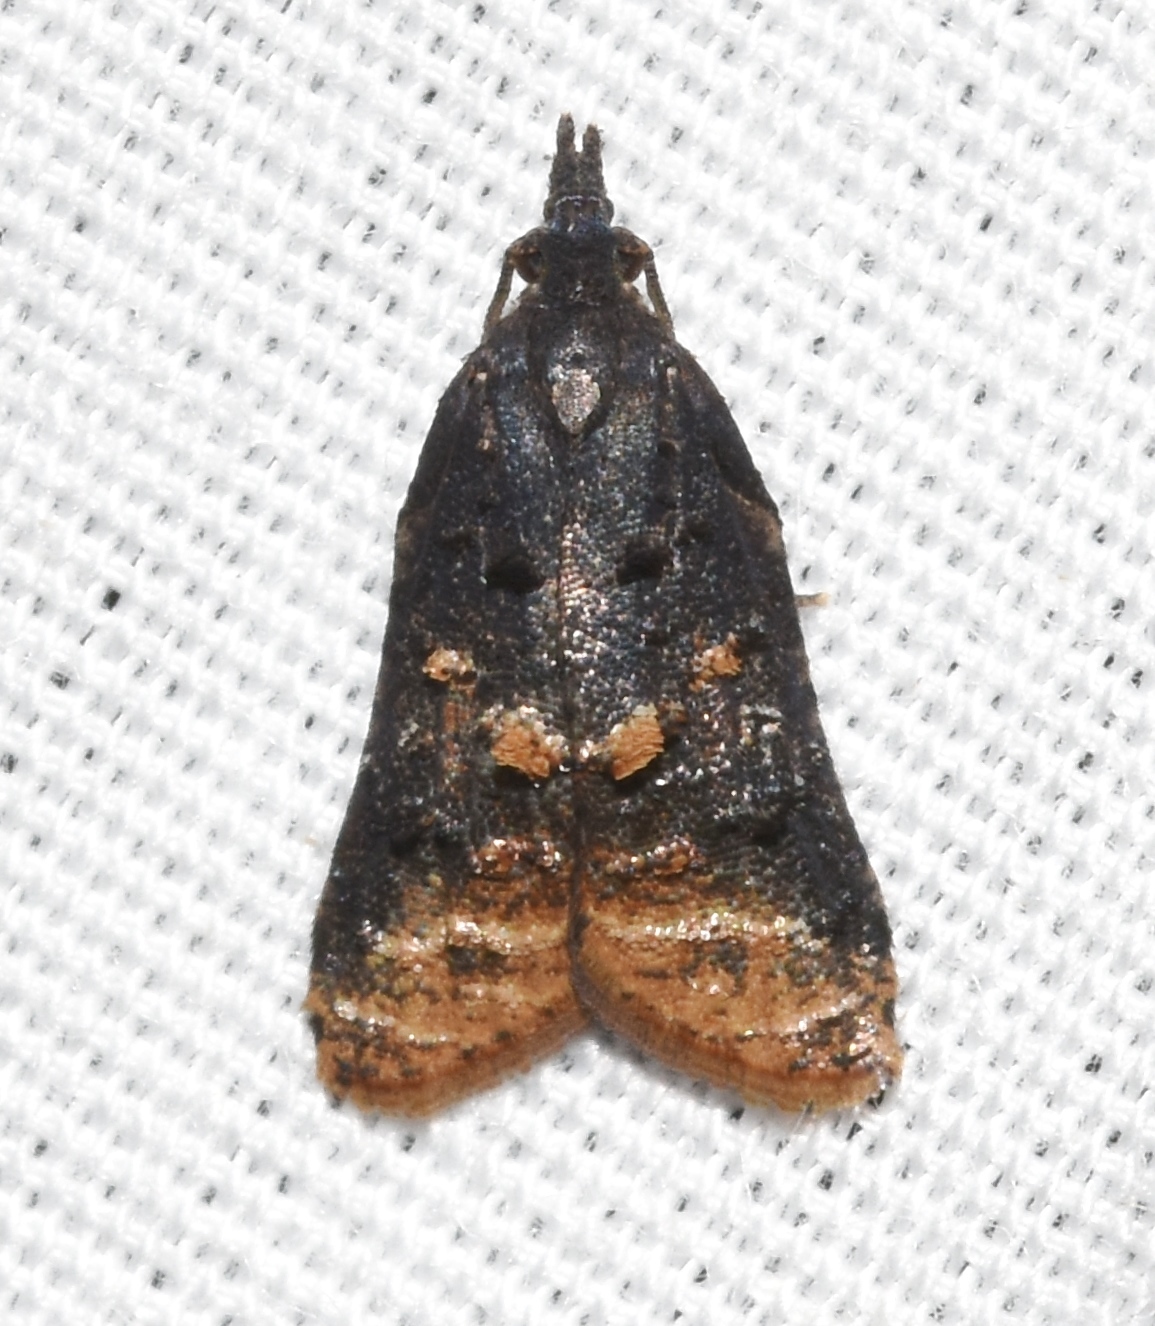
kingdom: Animalia
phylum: Arthropoda
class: Insecta
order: Lepidoptera
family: Tortricidae
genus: Platynota
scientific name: Platynota semiustana
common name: Singed platynota
